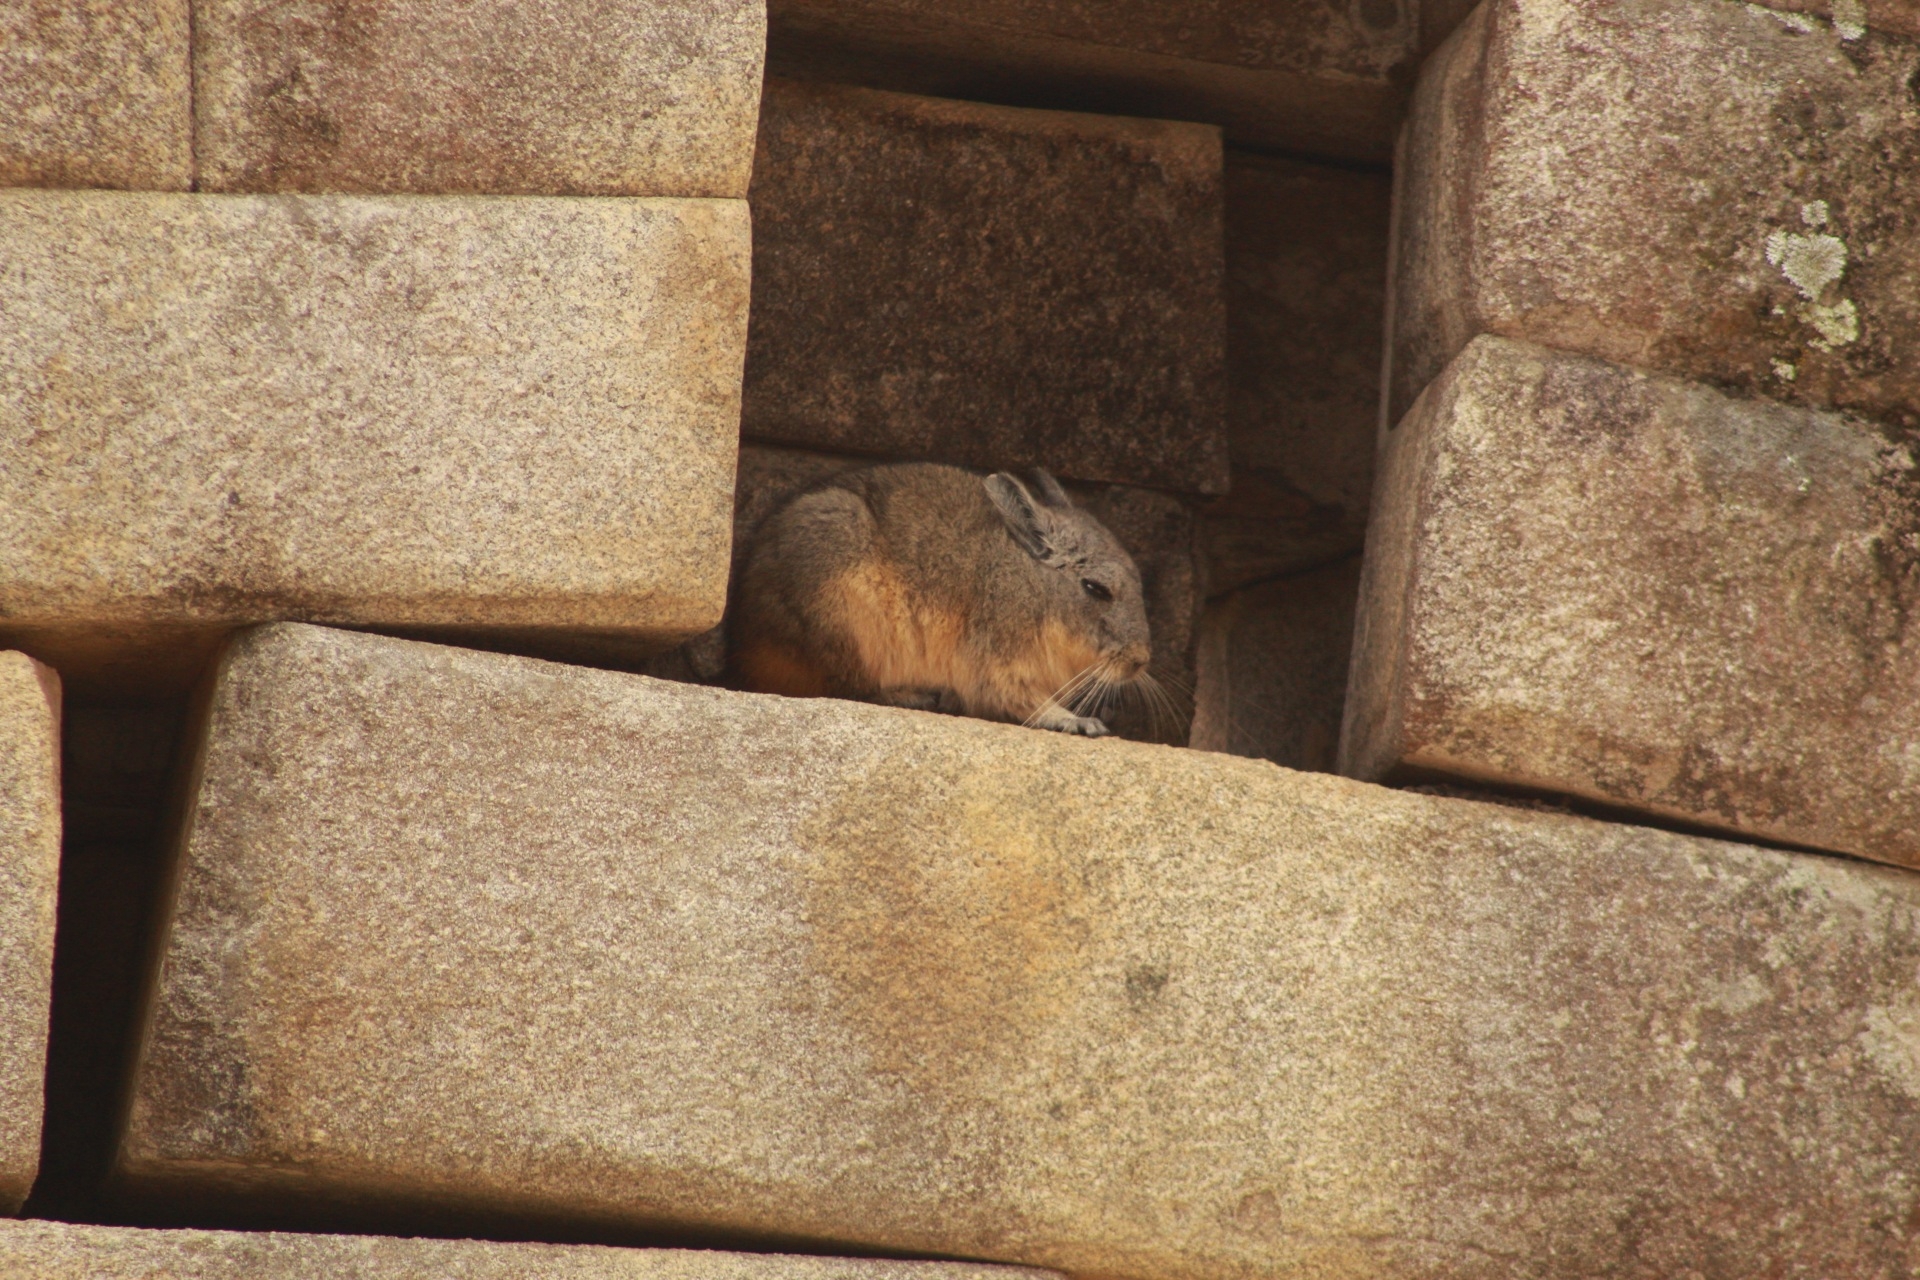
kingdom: Animalia
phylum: Chordata
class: Mammalia
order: Rodentia
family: Chinchillidae
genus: Lagidium
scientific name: Lagidium viscacia
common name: Southern viscacha
